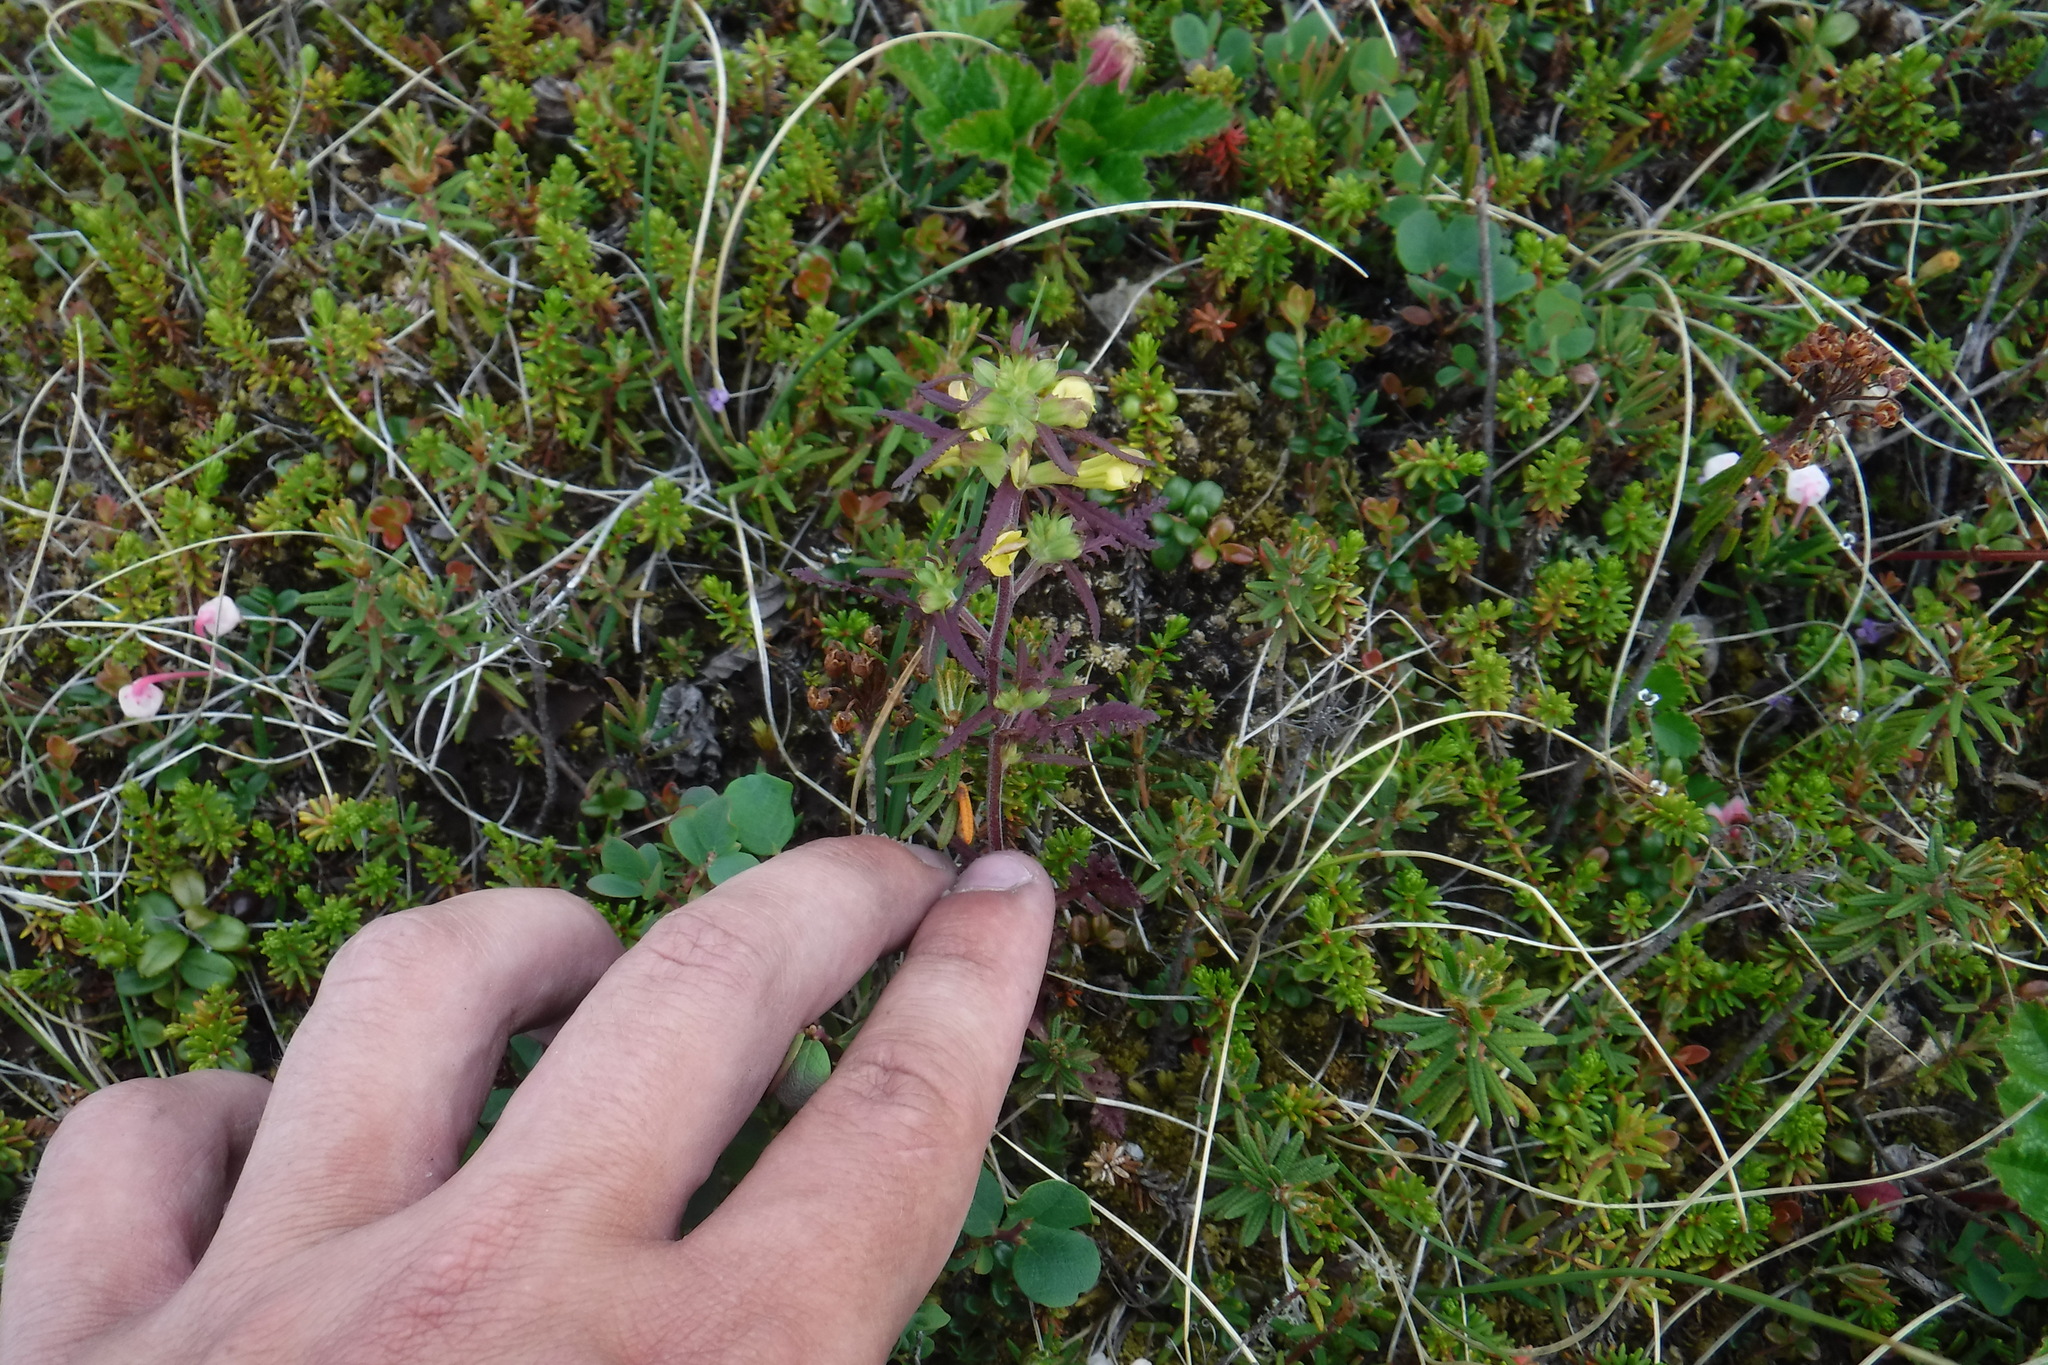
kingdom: Plantae
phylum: Tracheophyta
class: Magnoliopsida
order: Lamiales
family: Orobanchaceae
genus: Pedicularis
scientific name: Pedicularis labradorica
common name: Labrador lousewort
